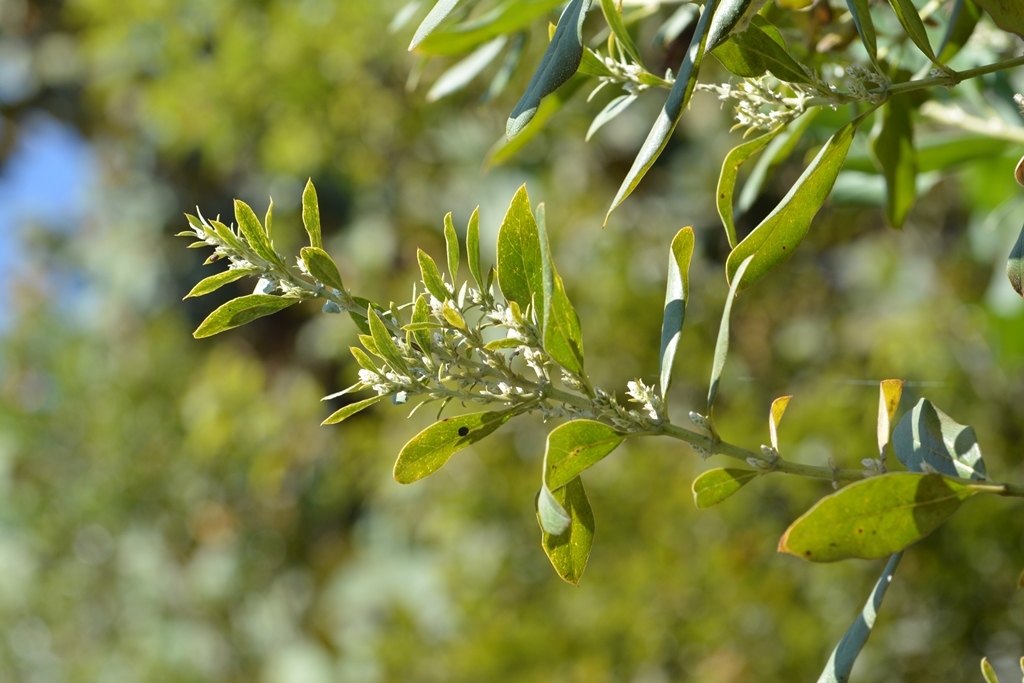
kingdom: Plantae
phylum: Tracheophyta
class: Magnoliopsida
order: Garryales
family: Garryaceae
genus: Garrya
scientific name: Garrya laurifolia
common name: Cuachichic
